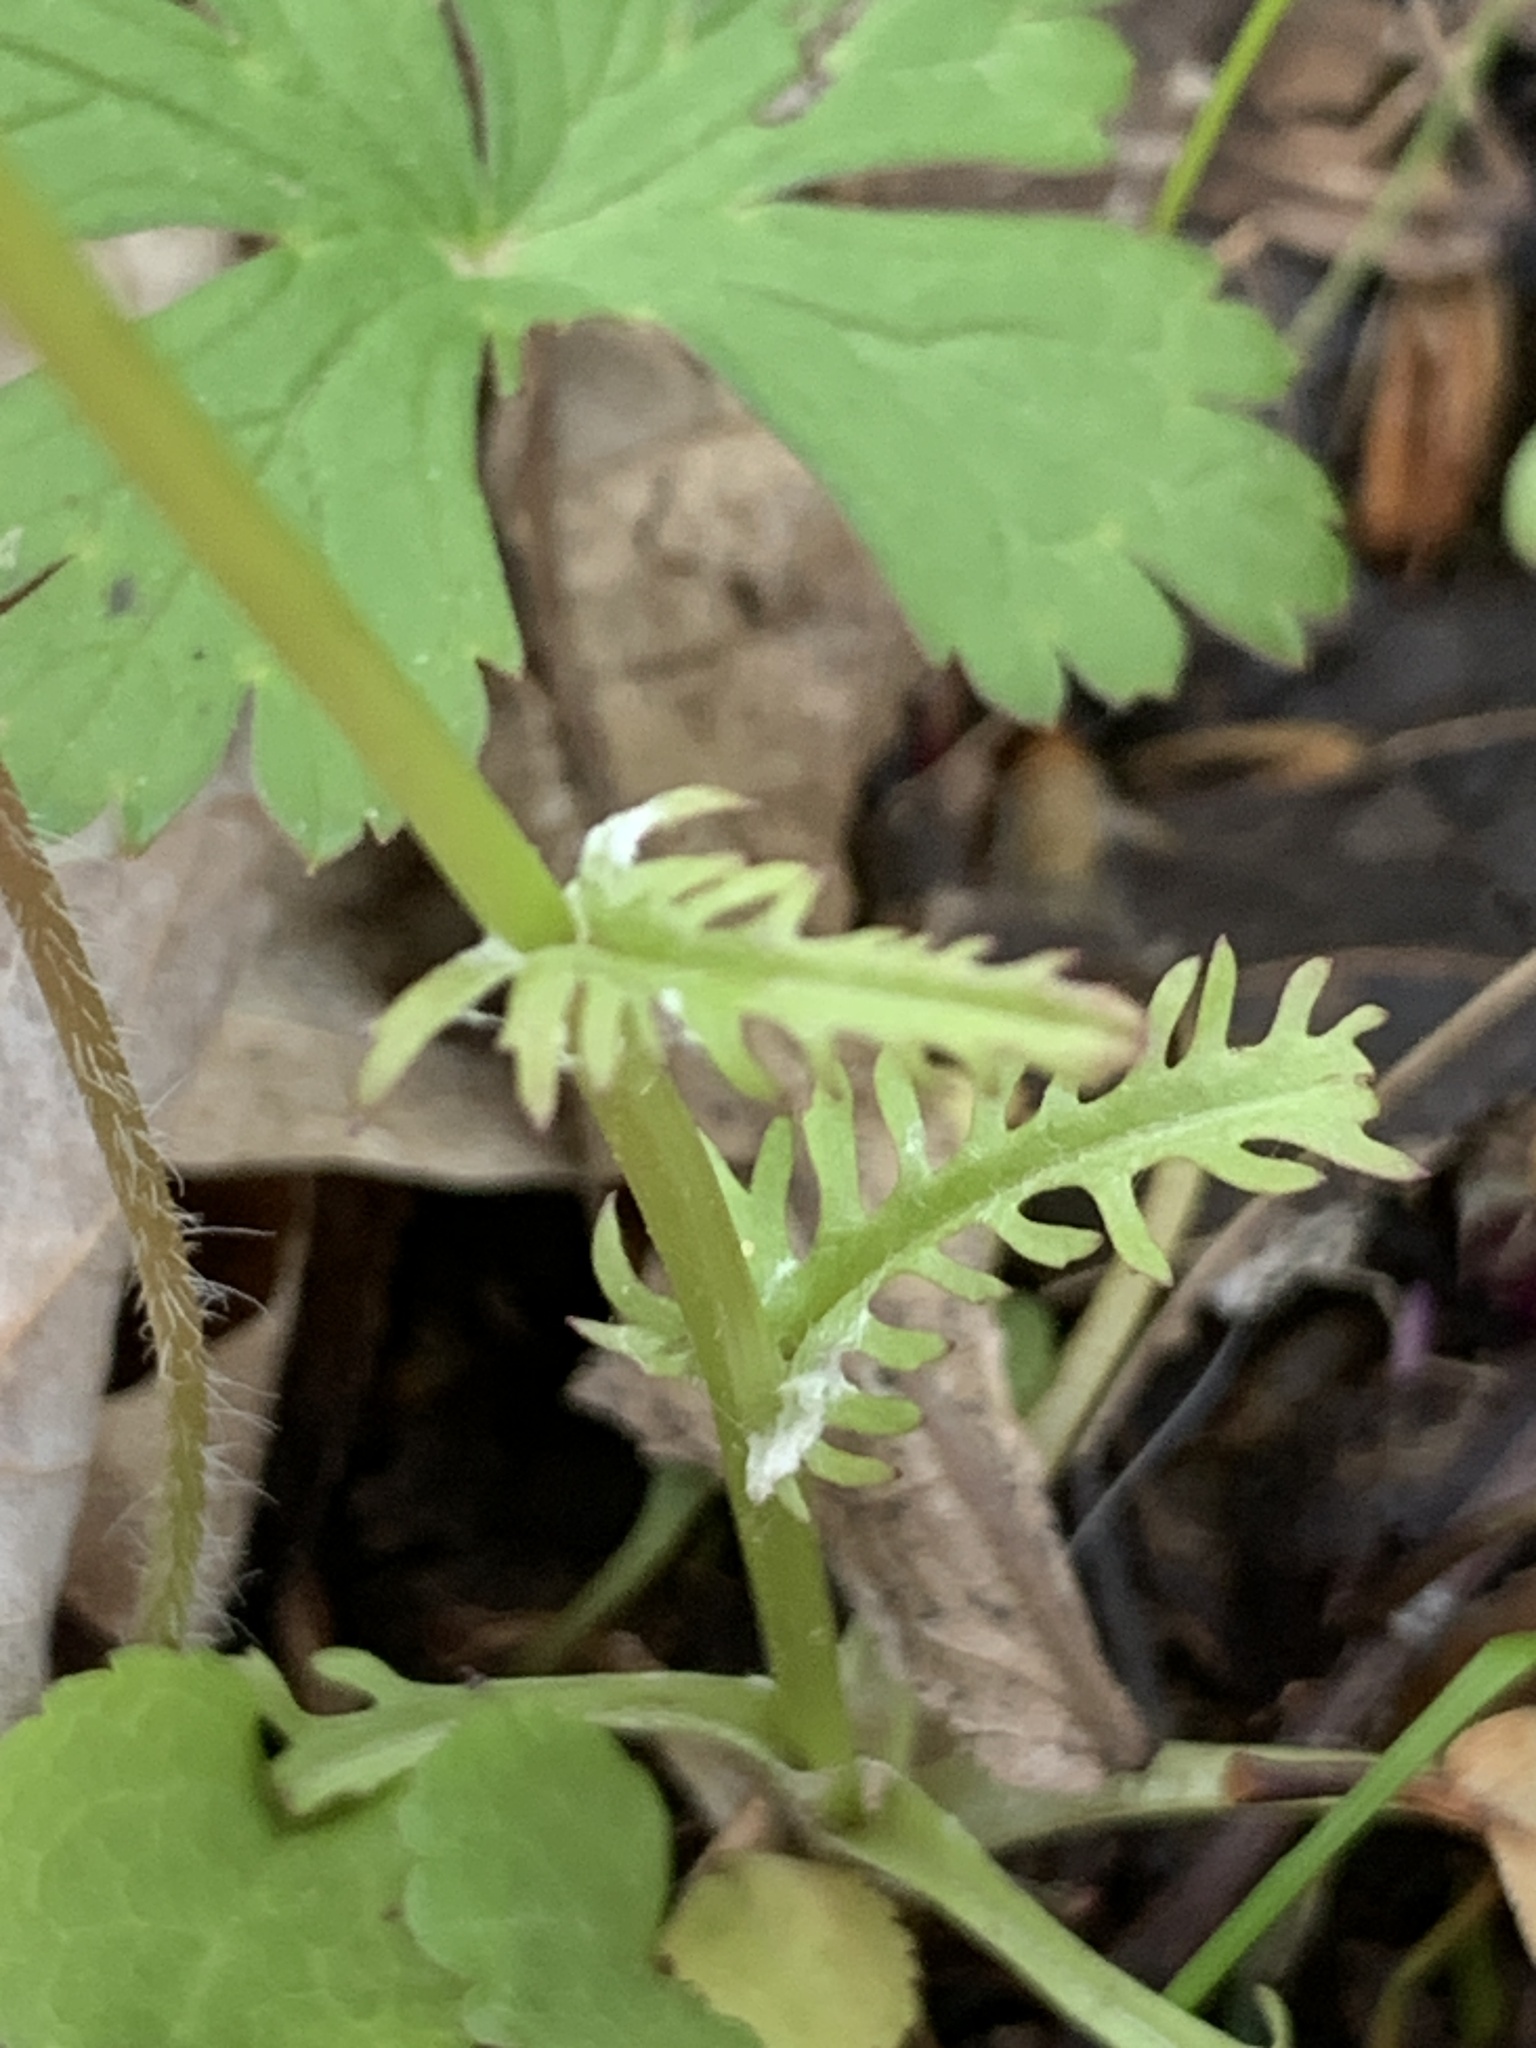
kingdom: Plantae
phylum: Tracheophyta
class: Magnoliopsida
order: Asterales
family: Asteraceae
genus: Packera
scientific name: Packera obovata
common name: Round-leaf ragwort
